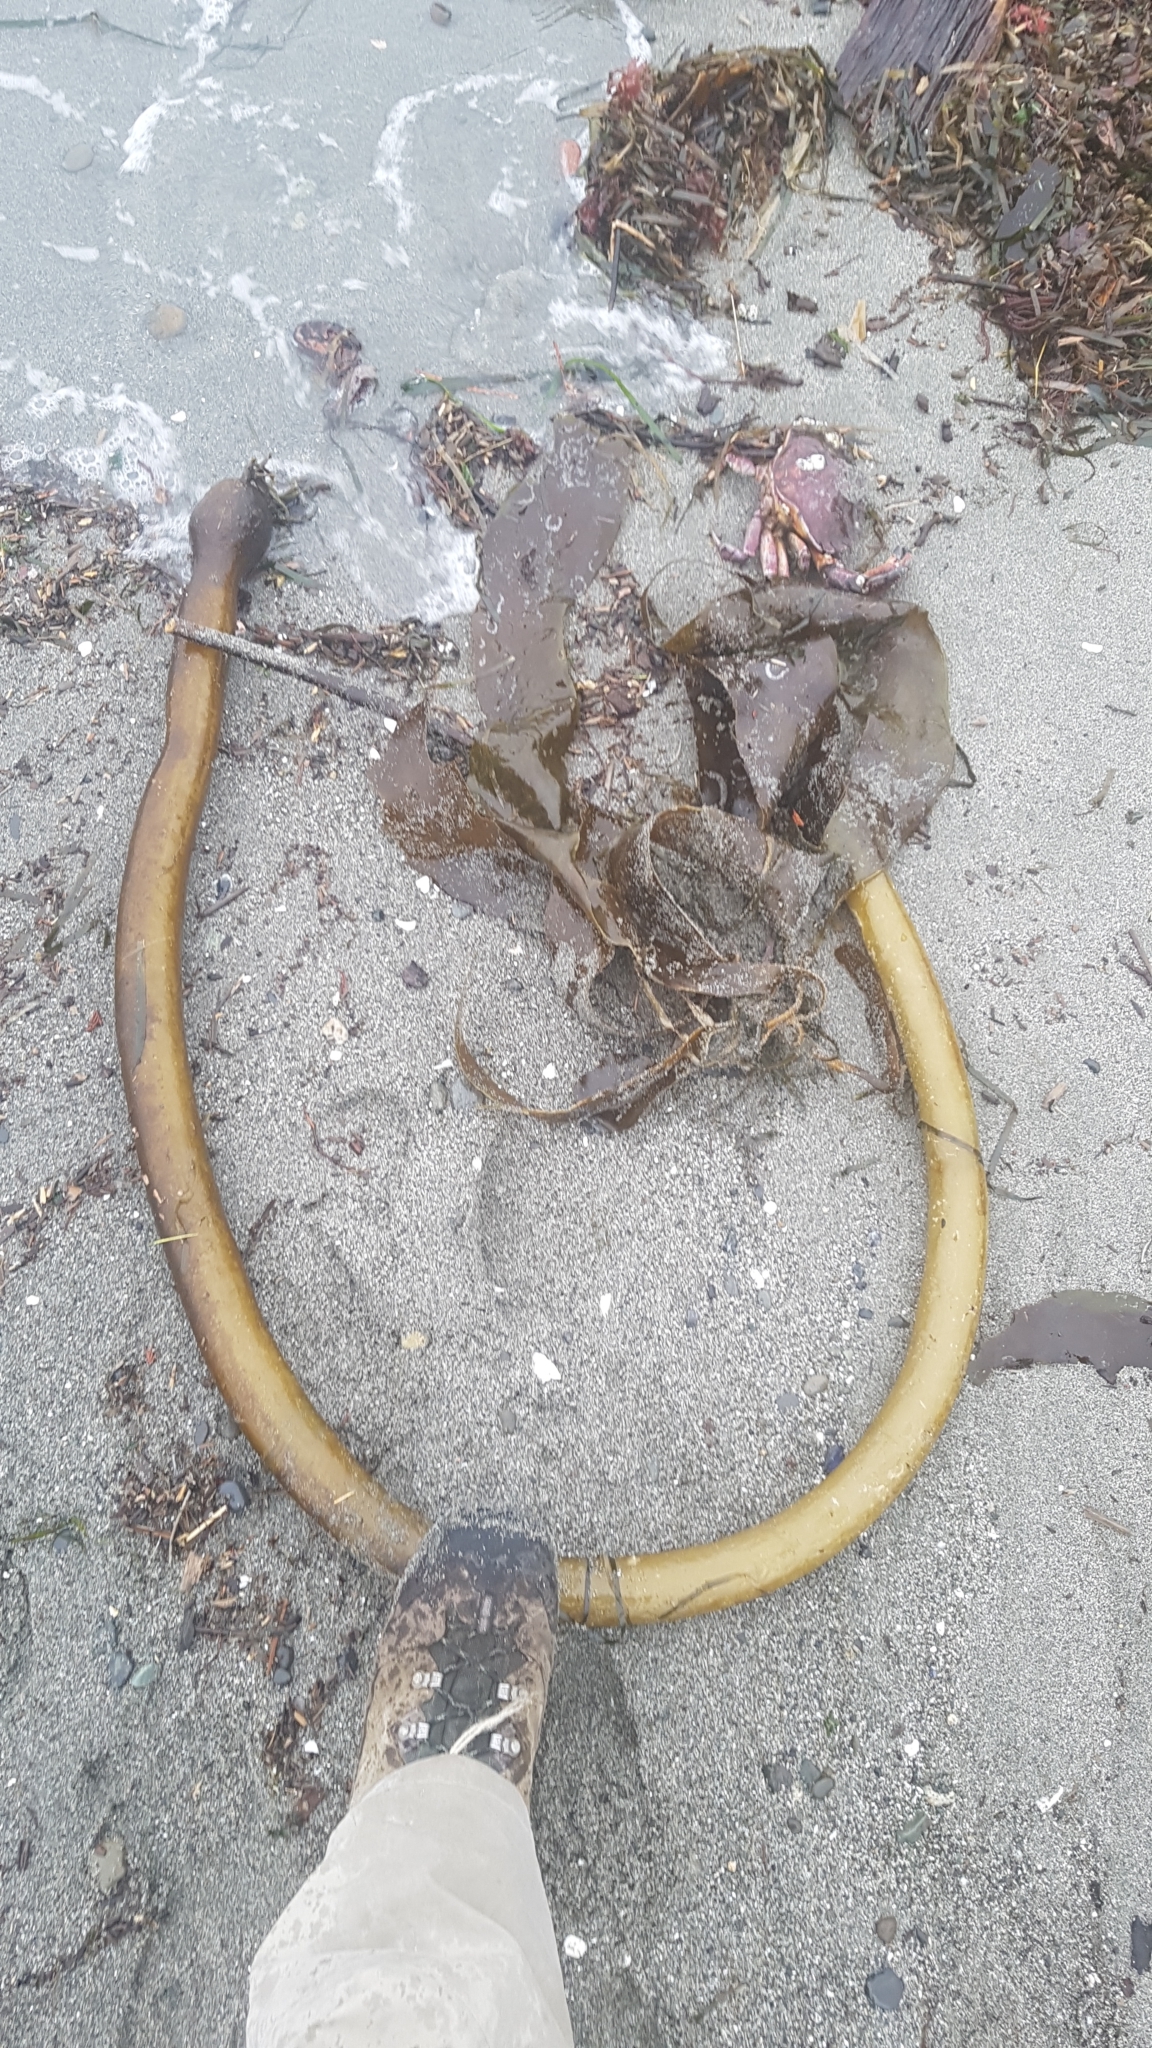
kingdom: Chromista
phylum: Ochrophyta
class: Phaeophyceae
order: Laminariales
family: Laminariaceae
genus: Nereocystis
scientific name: Nereocystis luetkeana
